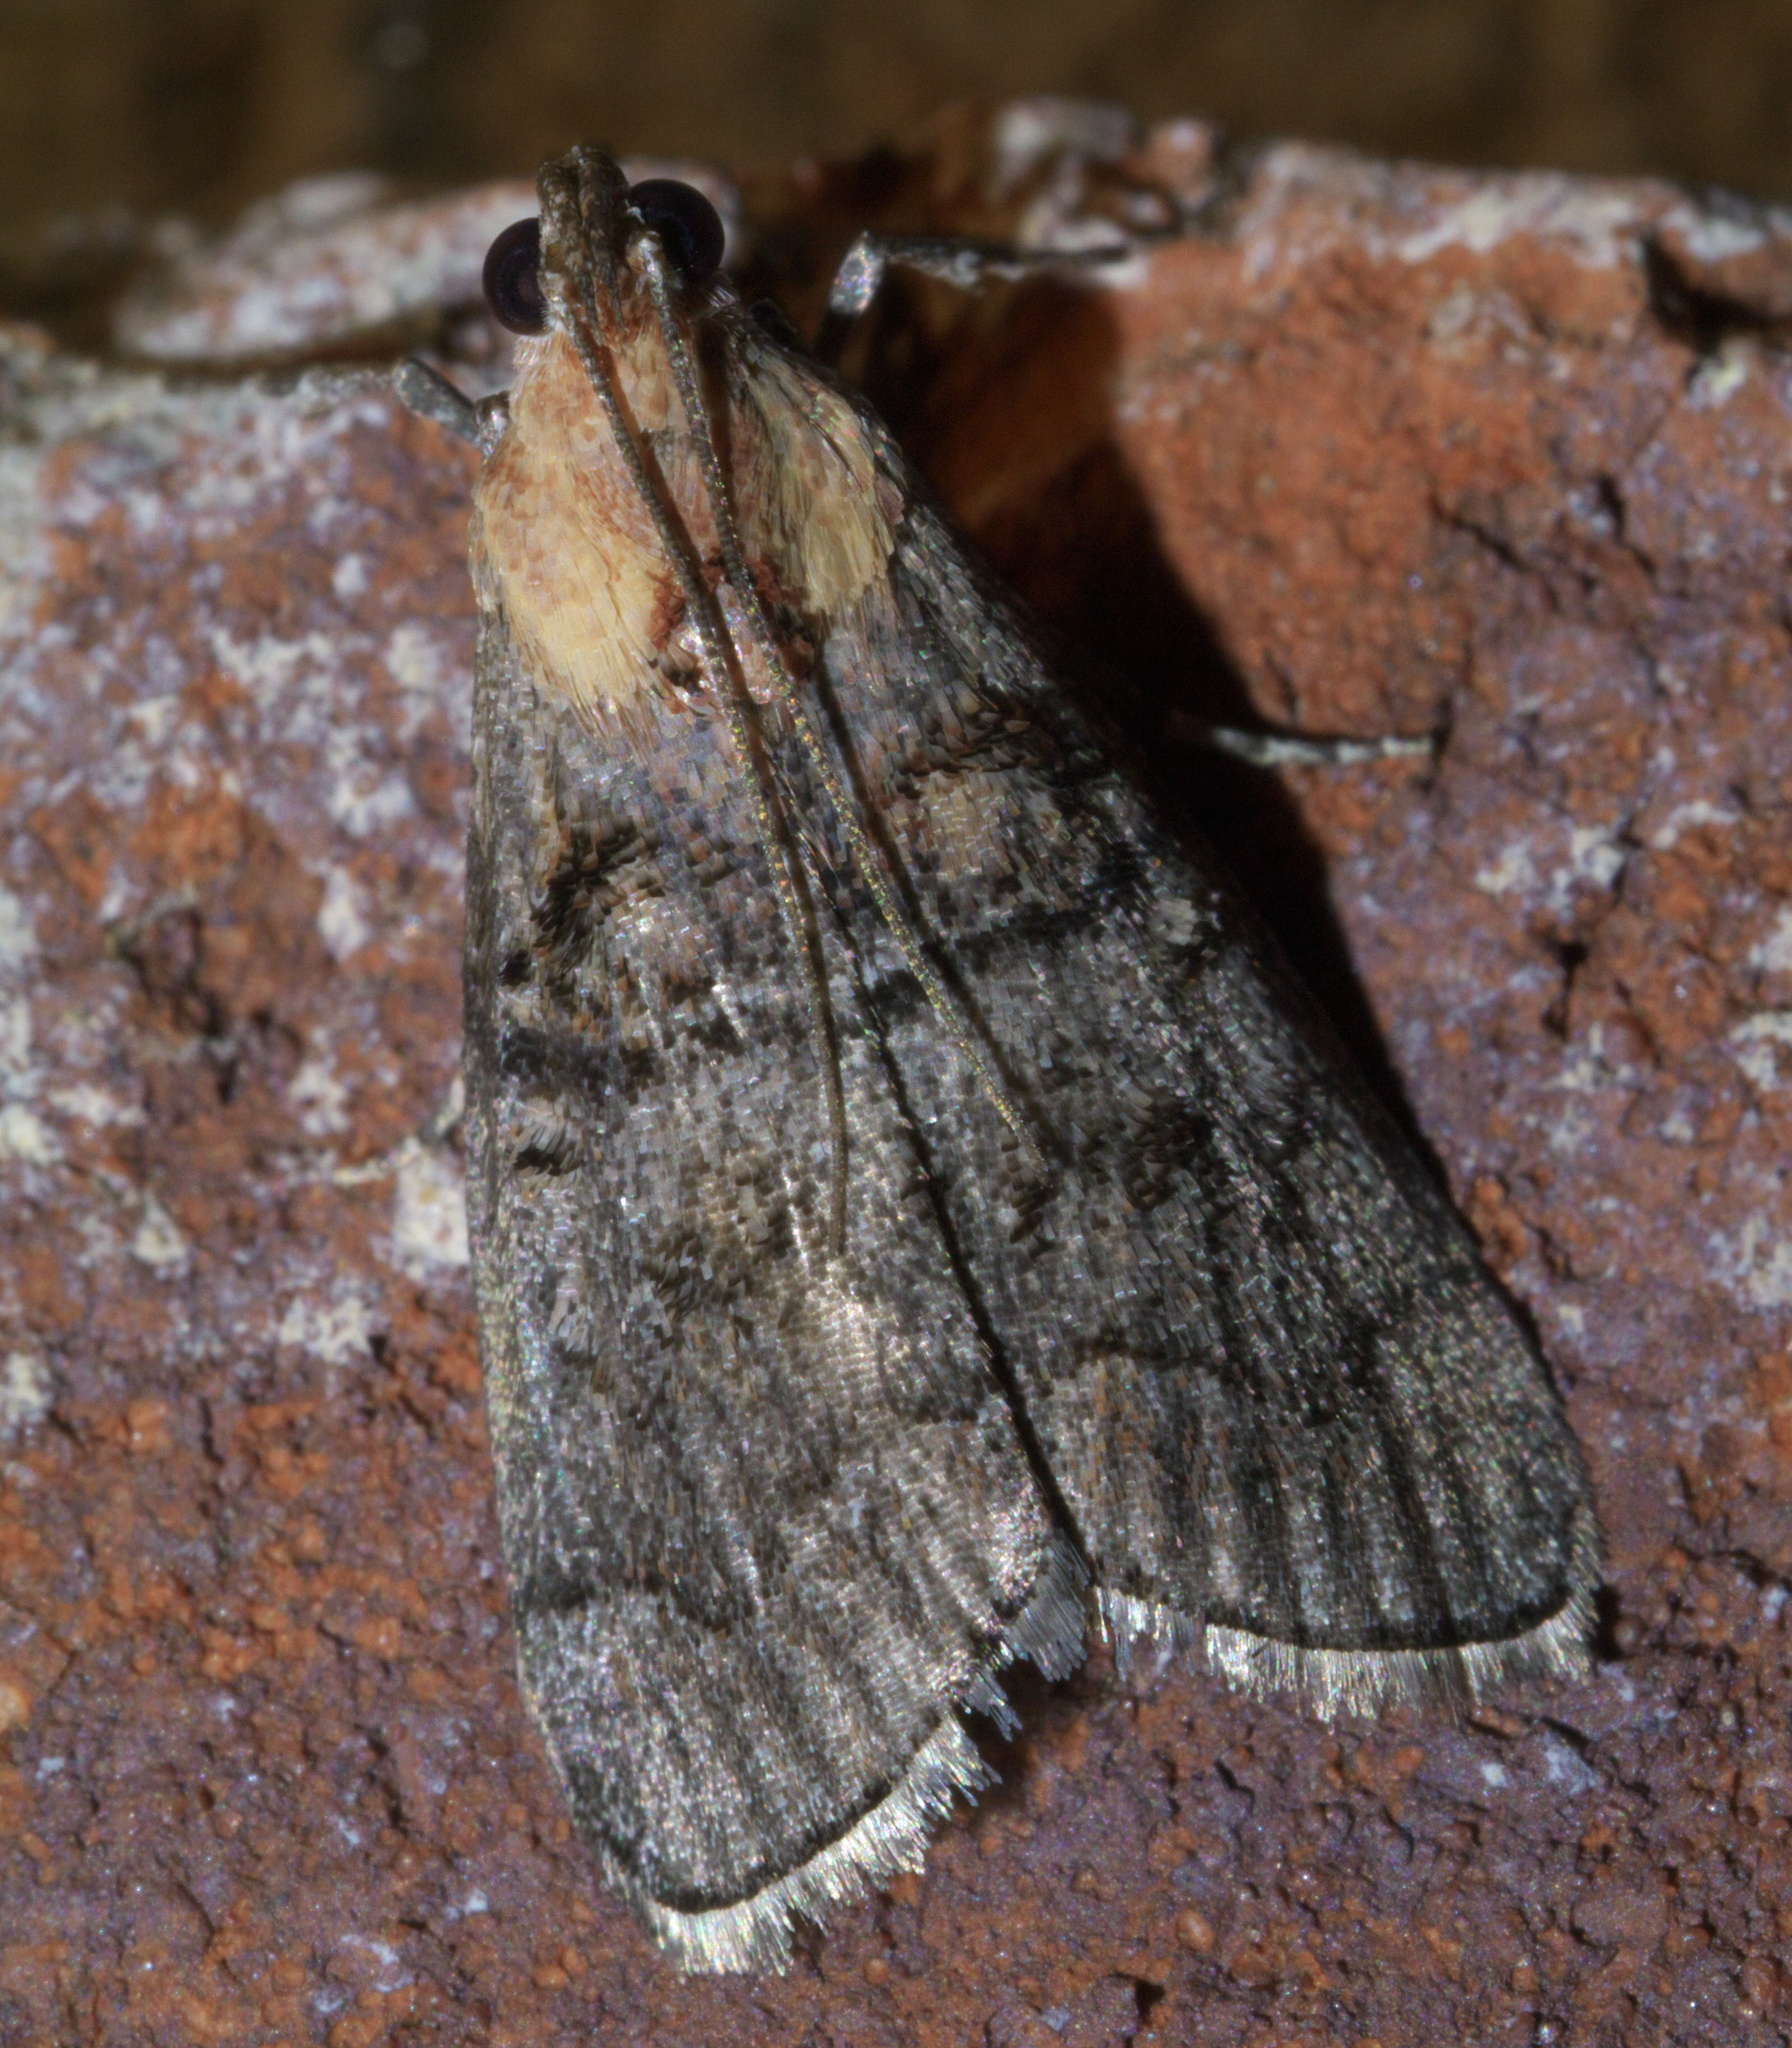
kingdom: Animalia
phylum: Arthropoda
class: Insecta
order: Lepidoptera
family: Pyralidae
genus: Pococera
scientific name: Pococera expandens
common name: Striped oak webworm moth
